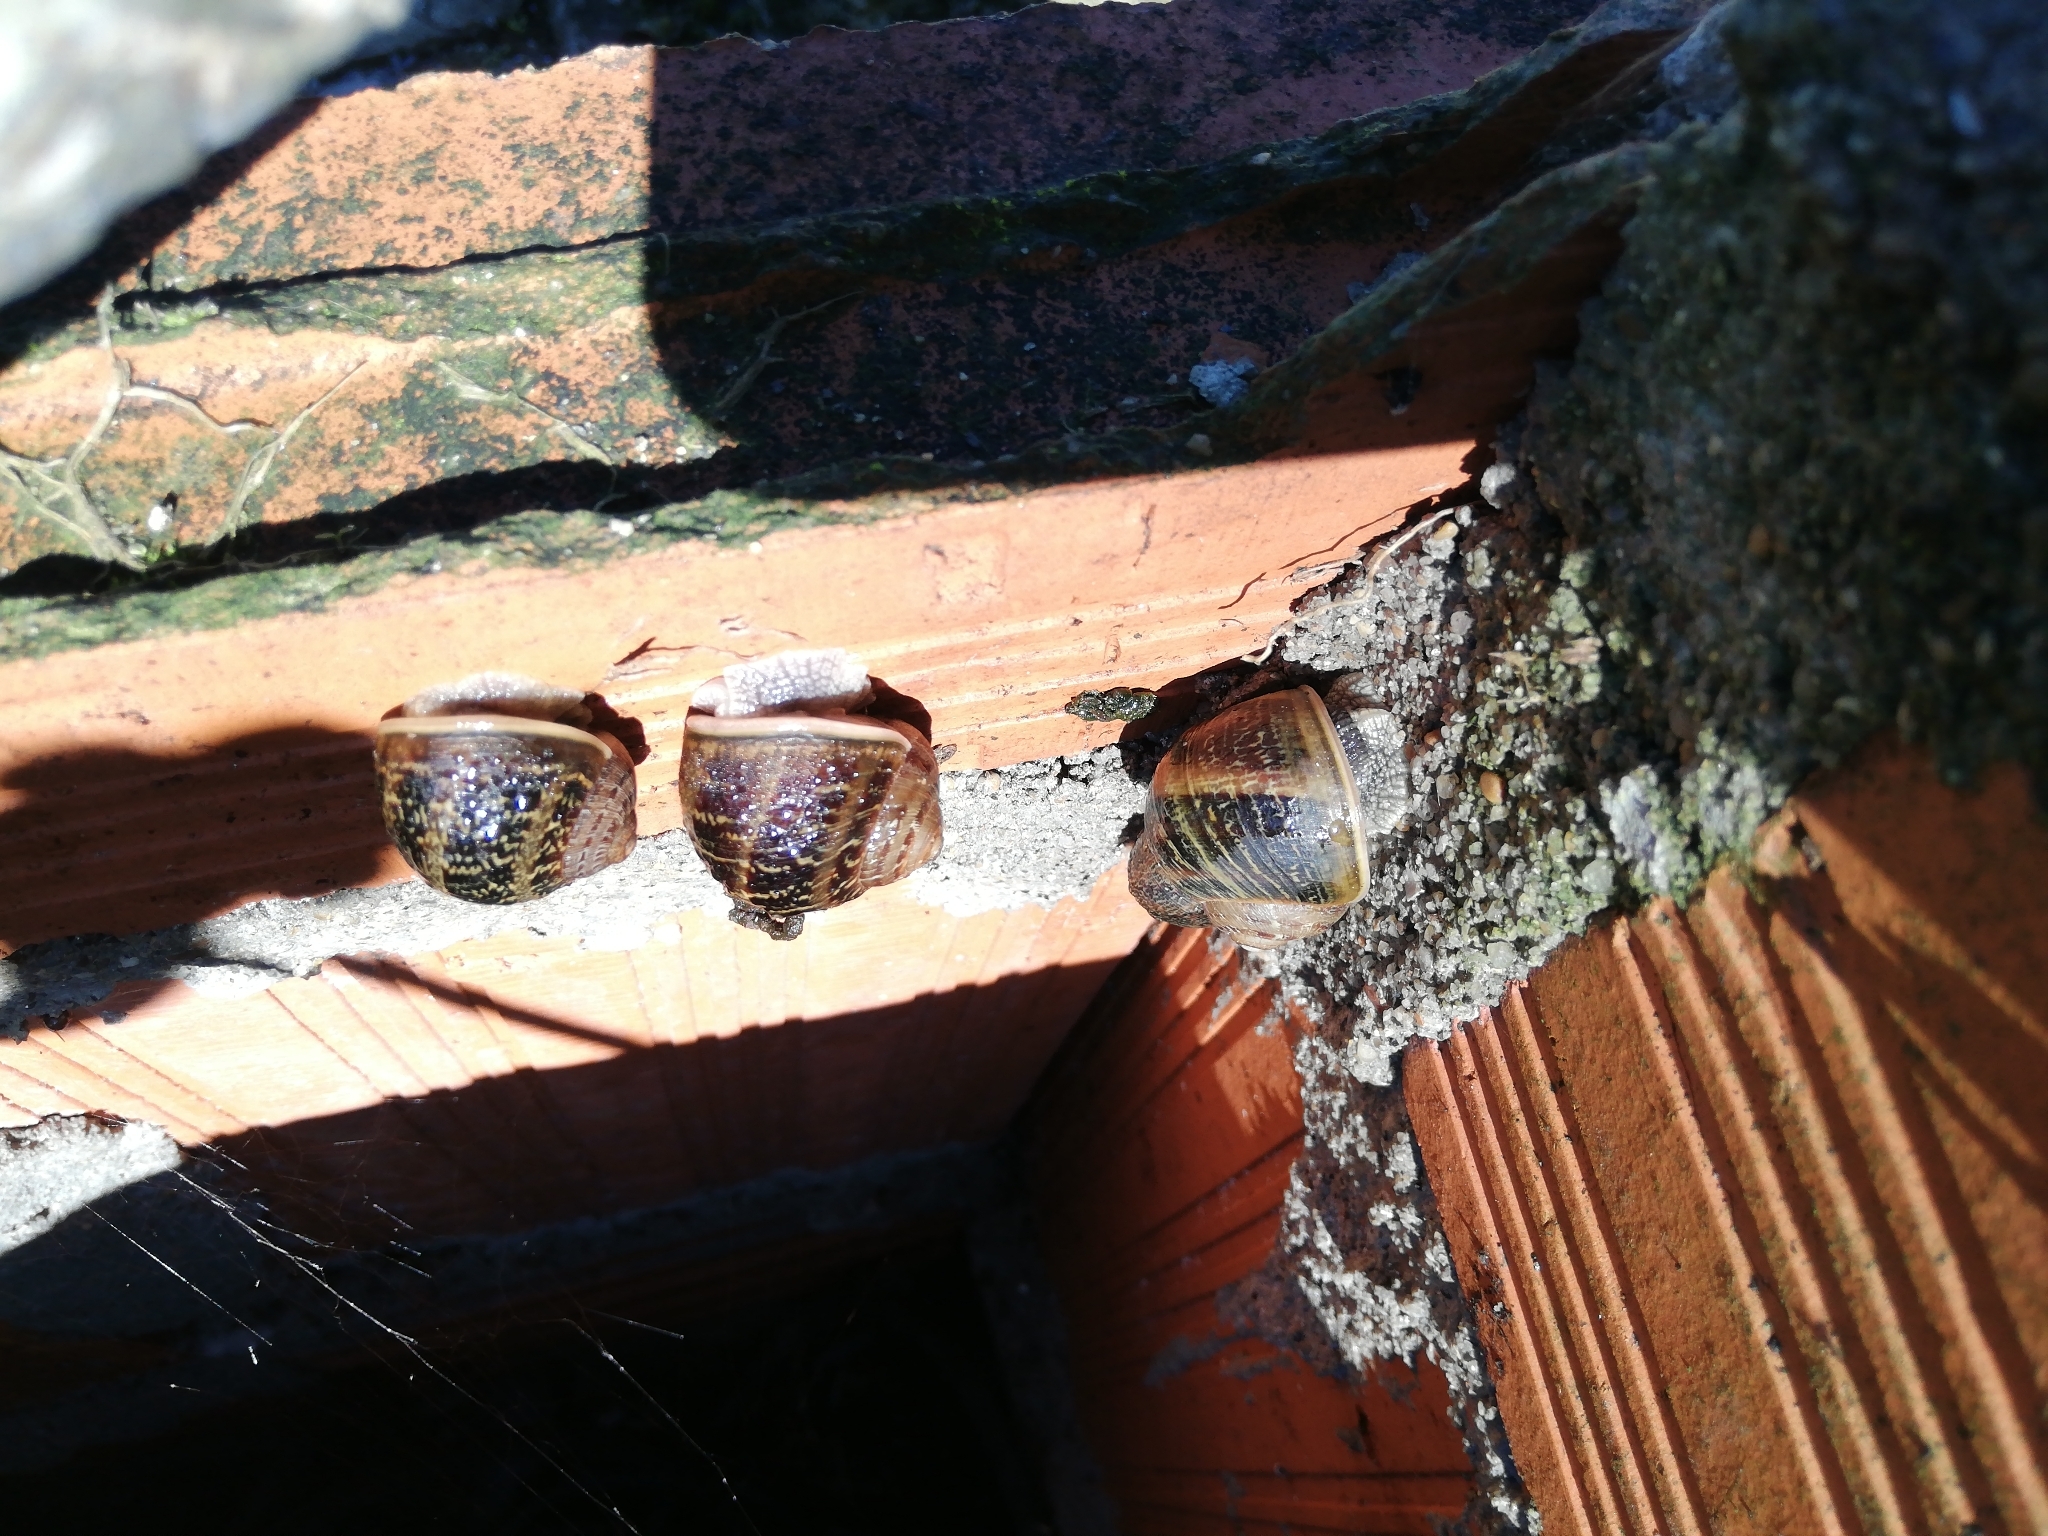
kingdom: Animalia
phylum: Mollusca
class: Gastropoda
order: Stylommatophora
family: Helicidae
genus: Cornu
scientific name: Cornu aspersum
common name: Brown garden snail
